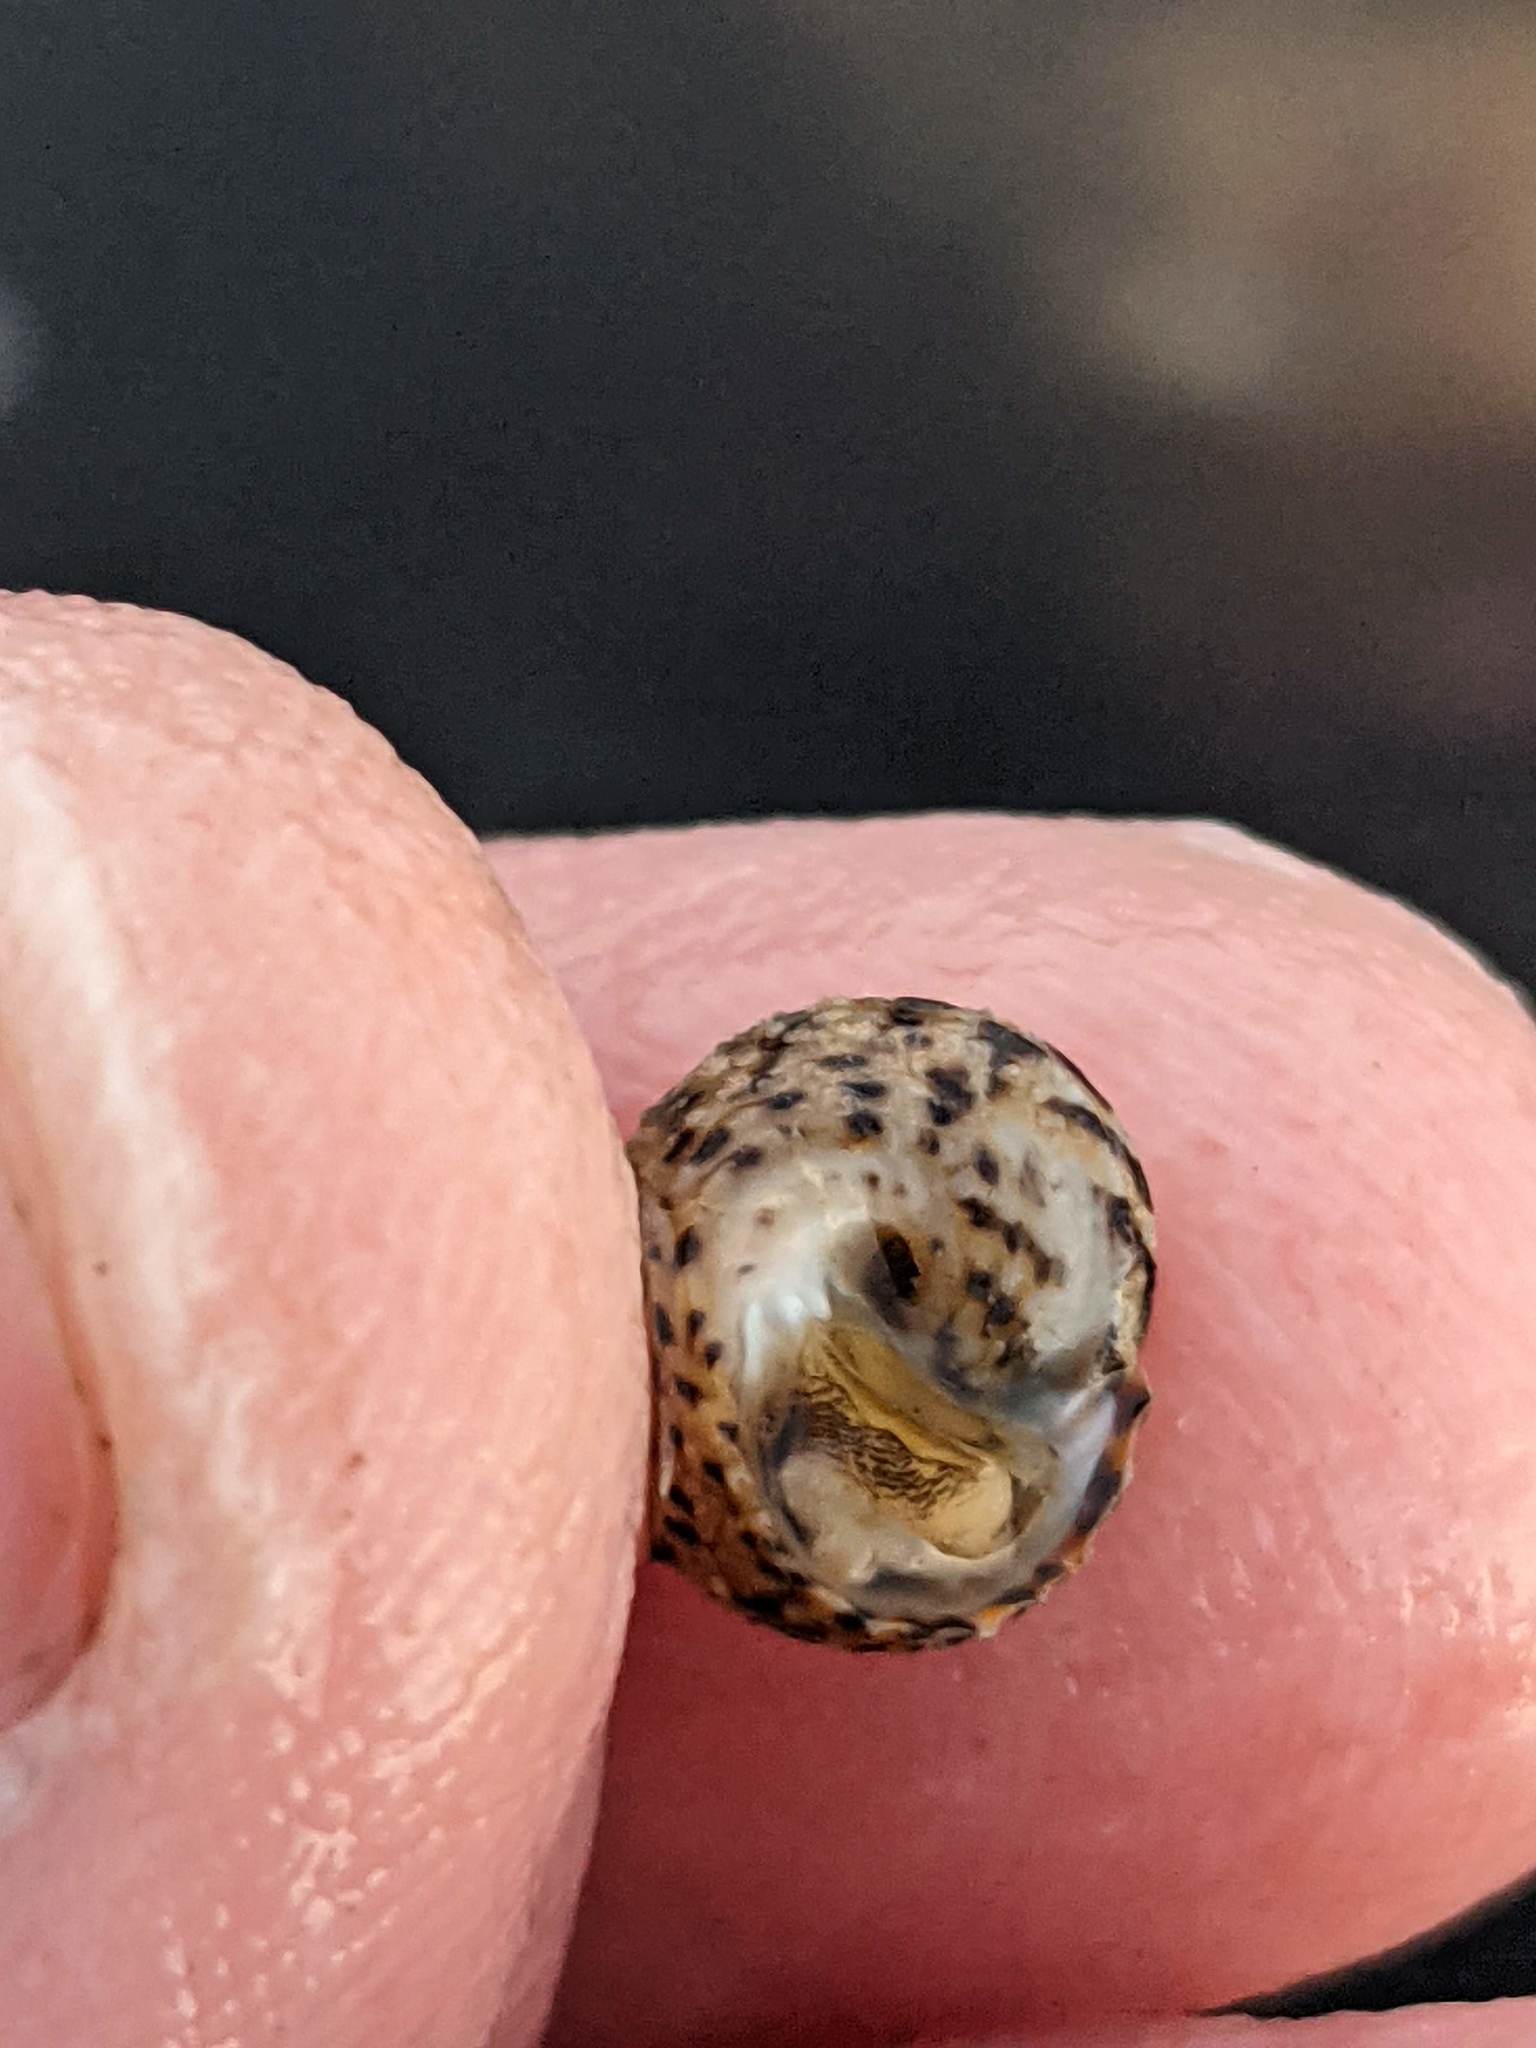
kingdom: Animalia
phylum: Mollusca
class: Gastropoda
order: Trochida
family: Tegulidae
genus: Tegula
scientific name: Tegula eiseni
